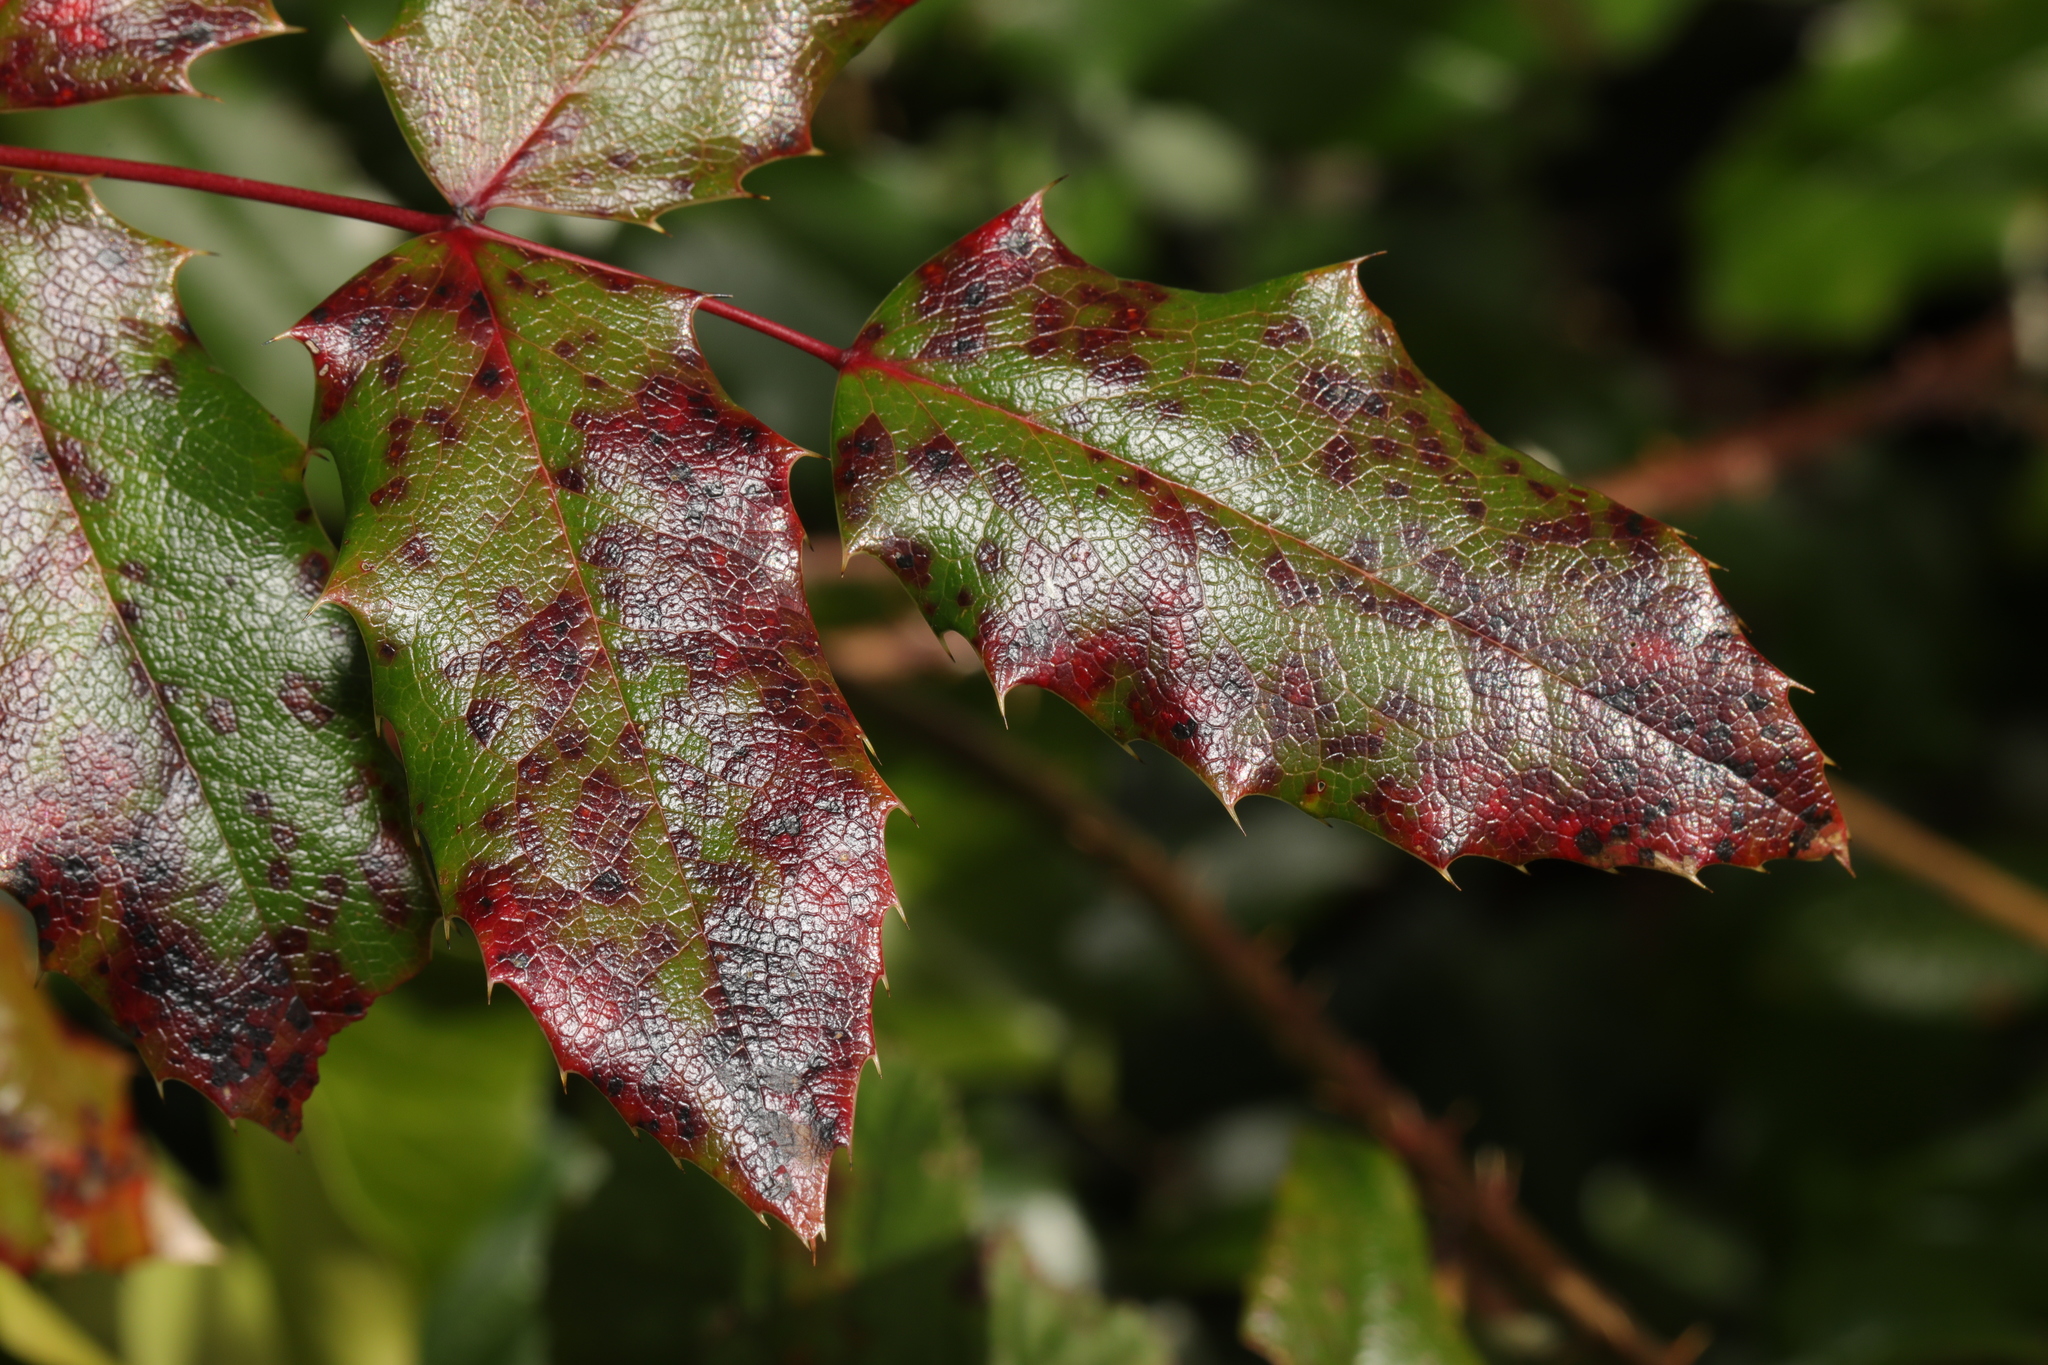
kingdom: Plantae
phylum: Tracheophyta
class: Magnoliopsida
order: Ranunculales
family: Berberidaceae
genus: Mahonia
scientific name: Mahonia aquifolium
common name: Oregon-grape
